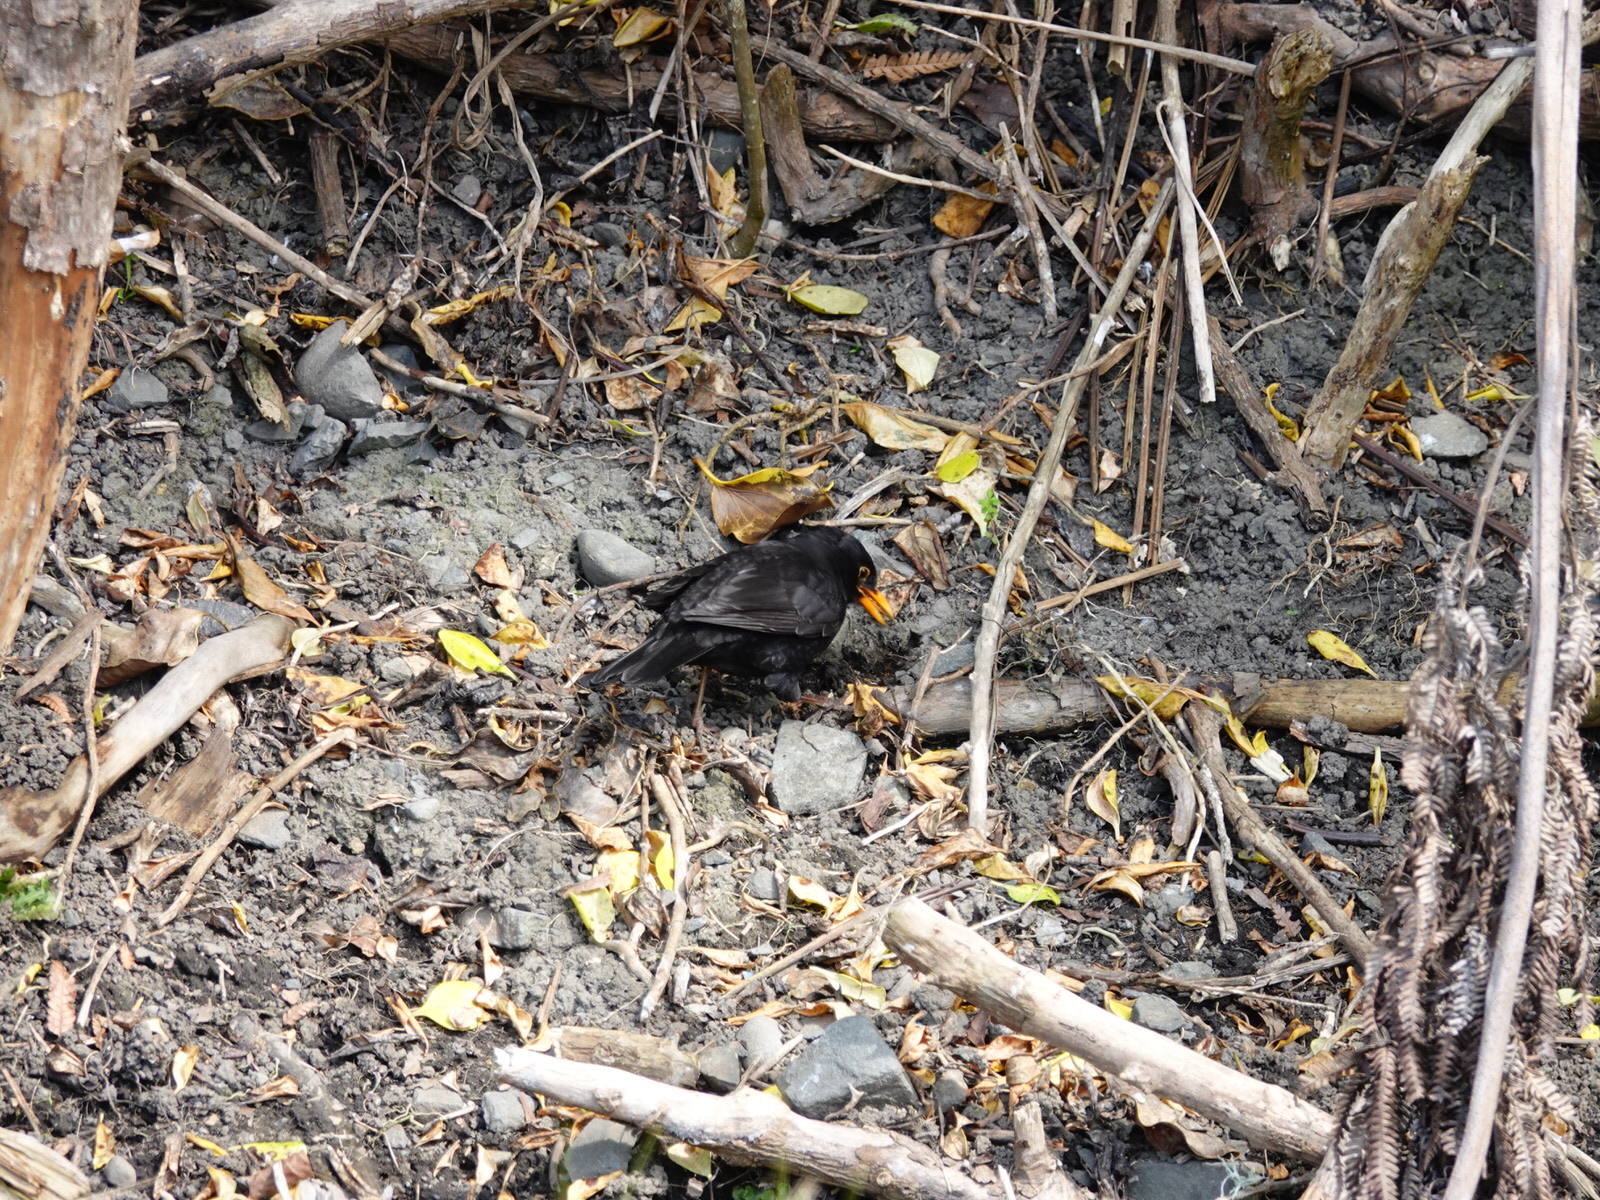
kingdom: Animalia
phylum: Chordata
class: Aves
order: Passeriformes
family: Turdidae
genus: Turdus
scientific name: Turdus merula
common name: Common blackbird
